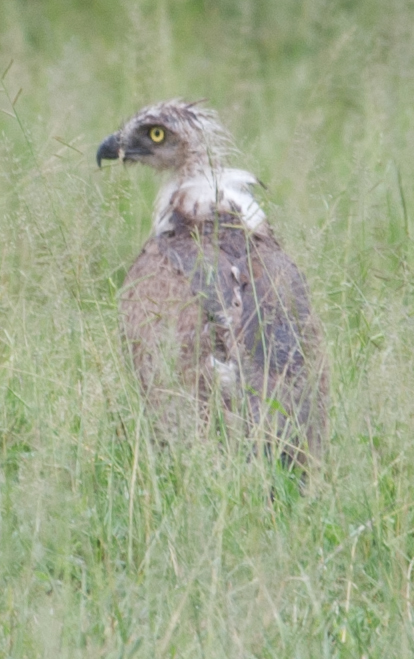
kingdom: Animalia
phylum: Chordata
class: Aves
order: Accipitriformes
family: Accipitridae
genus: Circaetus
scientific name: Circaetus cinereus
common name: Brown snake eagle
